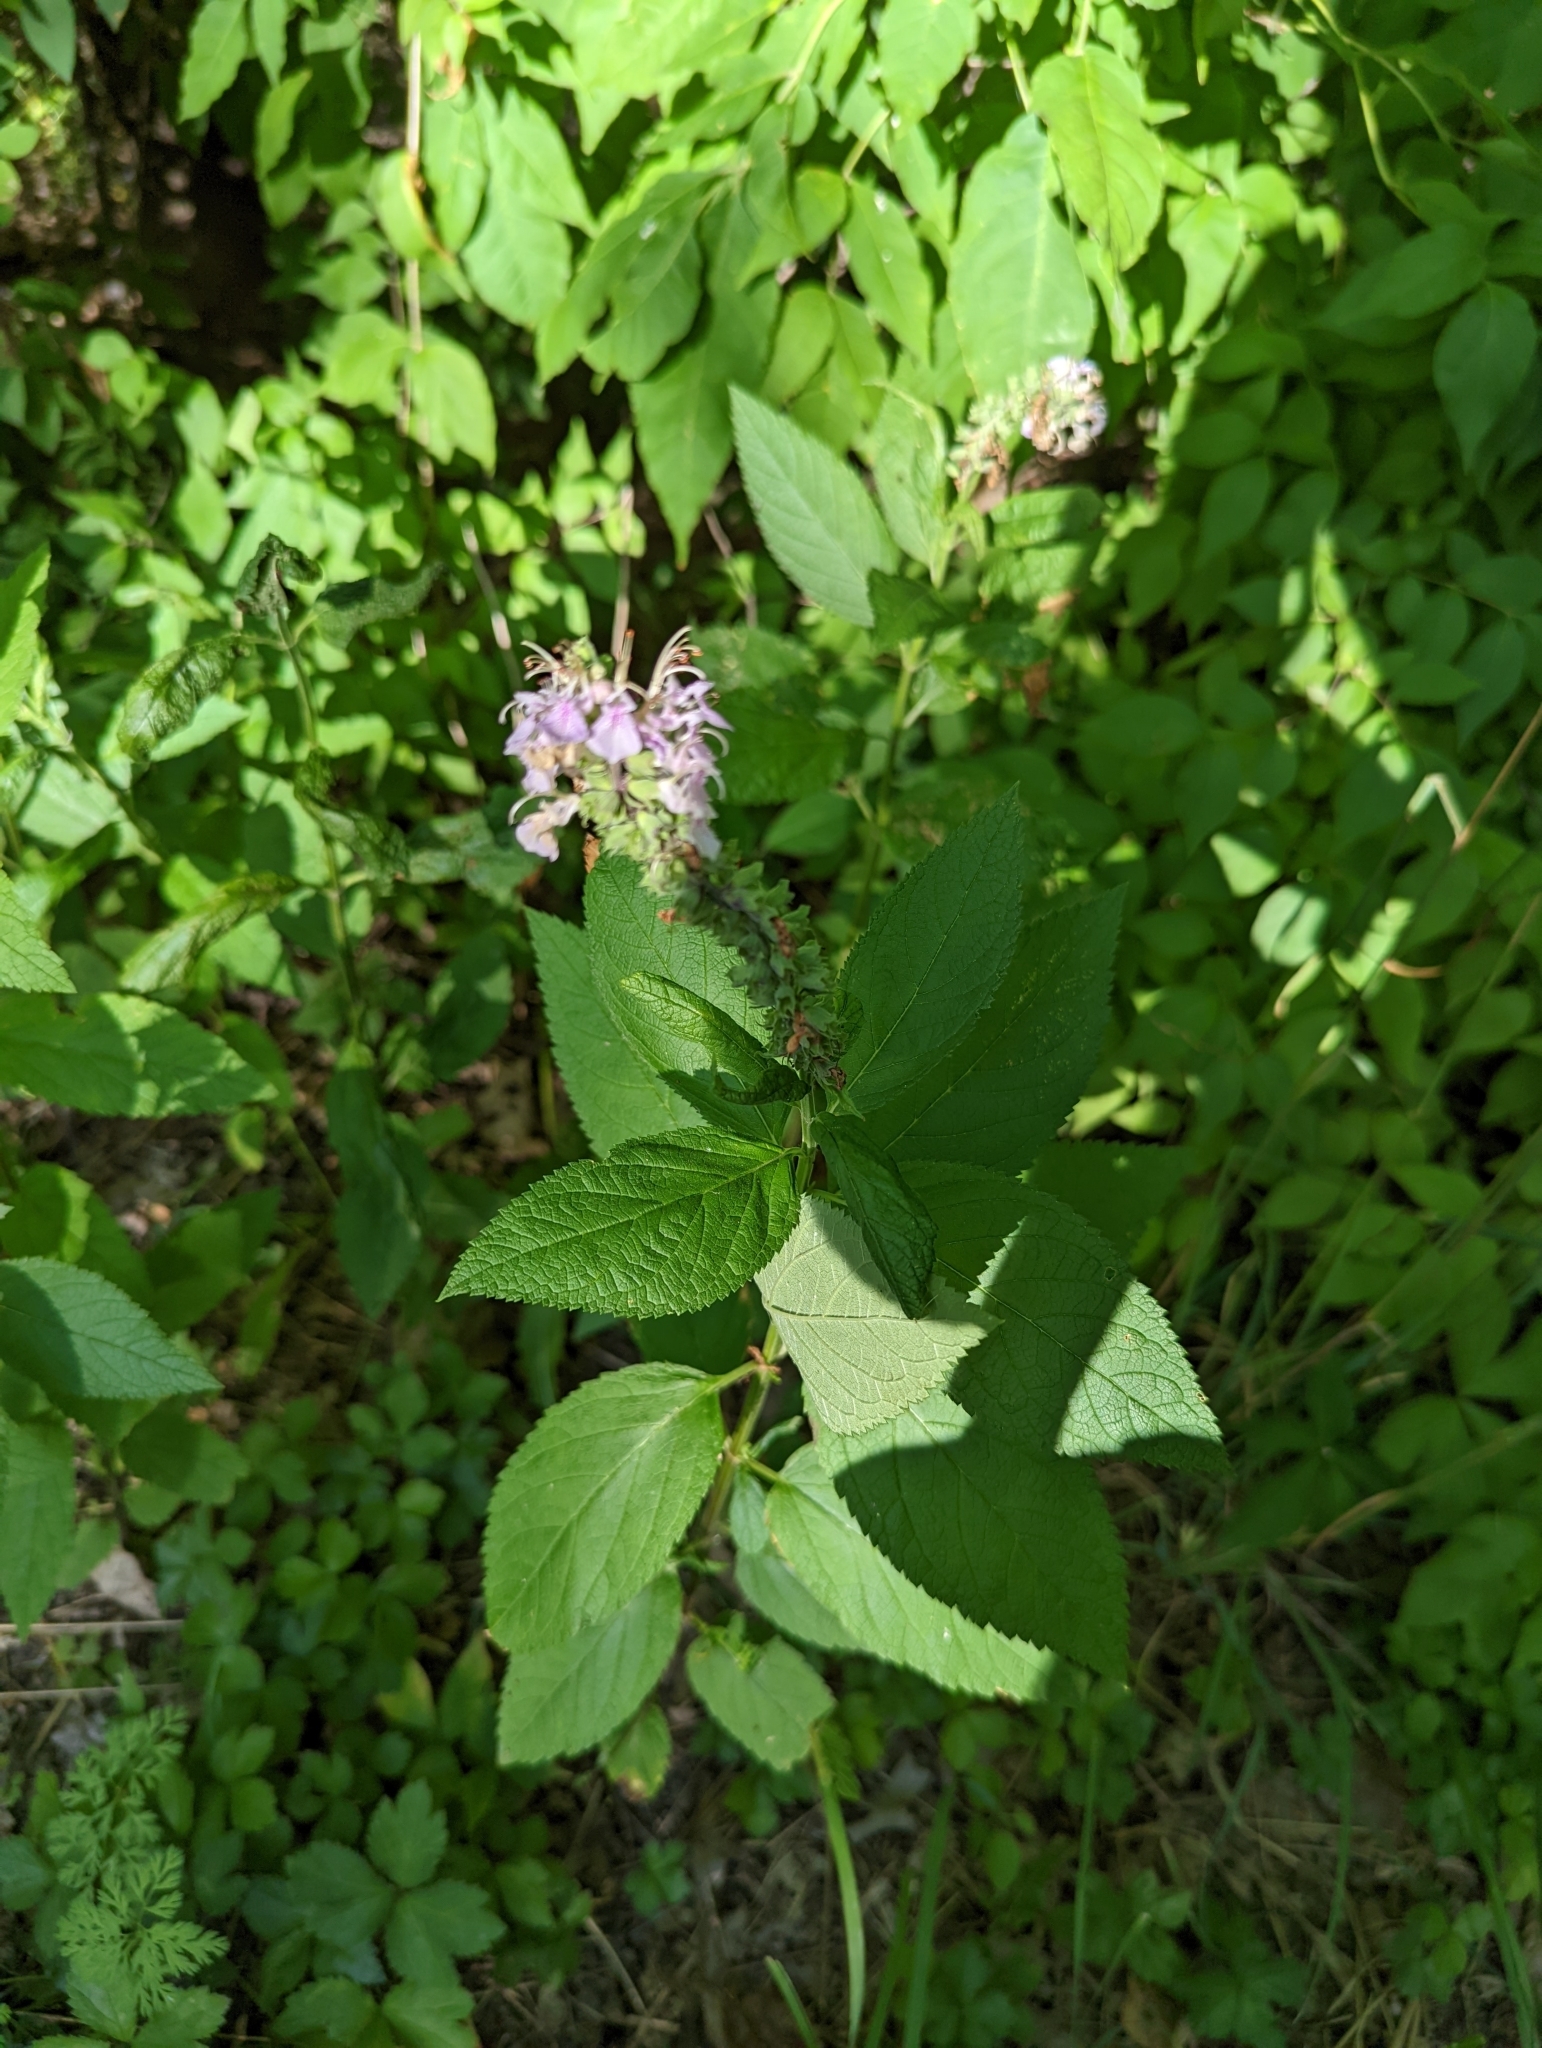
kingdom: Plantae
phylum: Tracheophyta
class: Magnoliopsida
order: Lamiales
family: Lamiaceae
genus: Teucrium
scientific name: Teucrium canadense
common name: American germander
